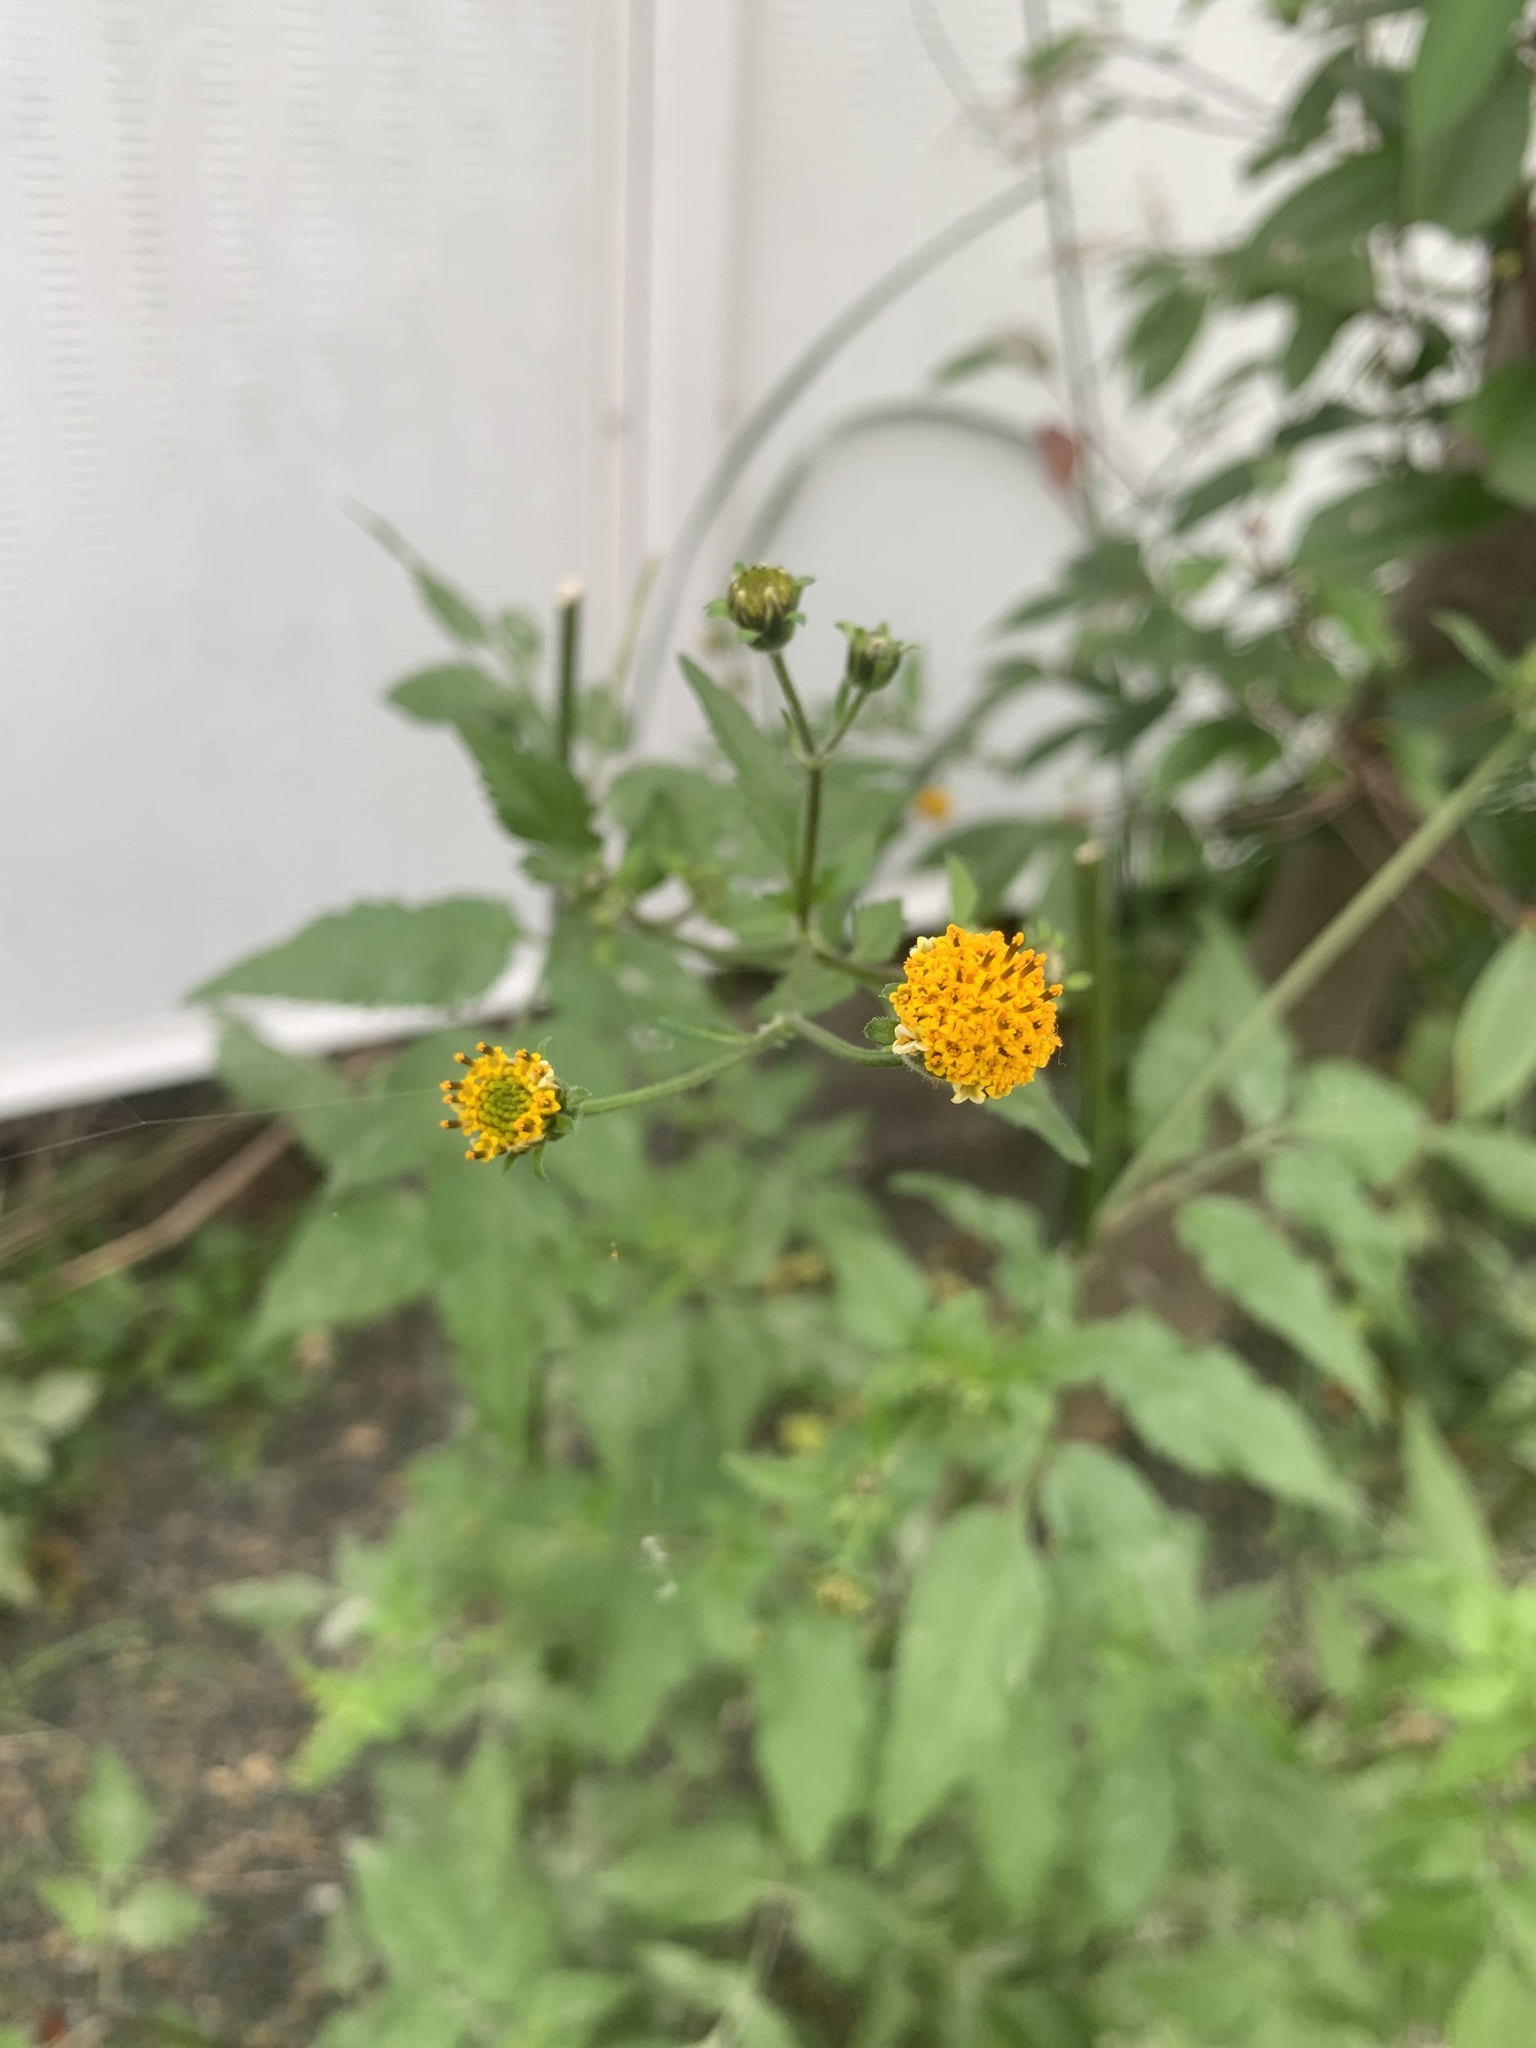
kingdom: Plantae
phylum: Tracheophyta
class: Magnoliopsida
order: Asterales
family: Asteraceae
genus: Bidens
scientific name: Bidens pilosa
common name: Black-jack
